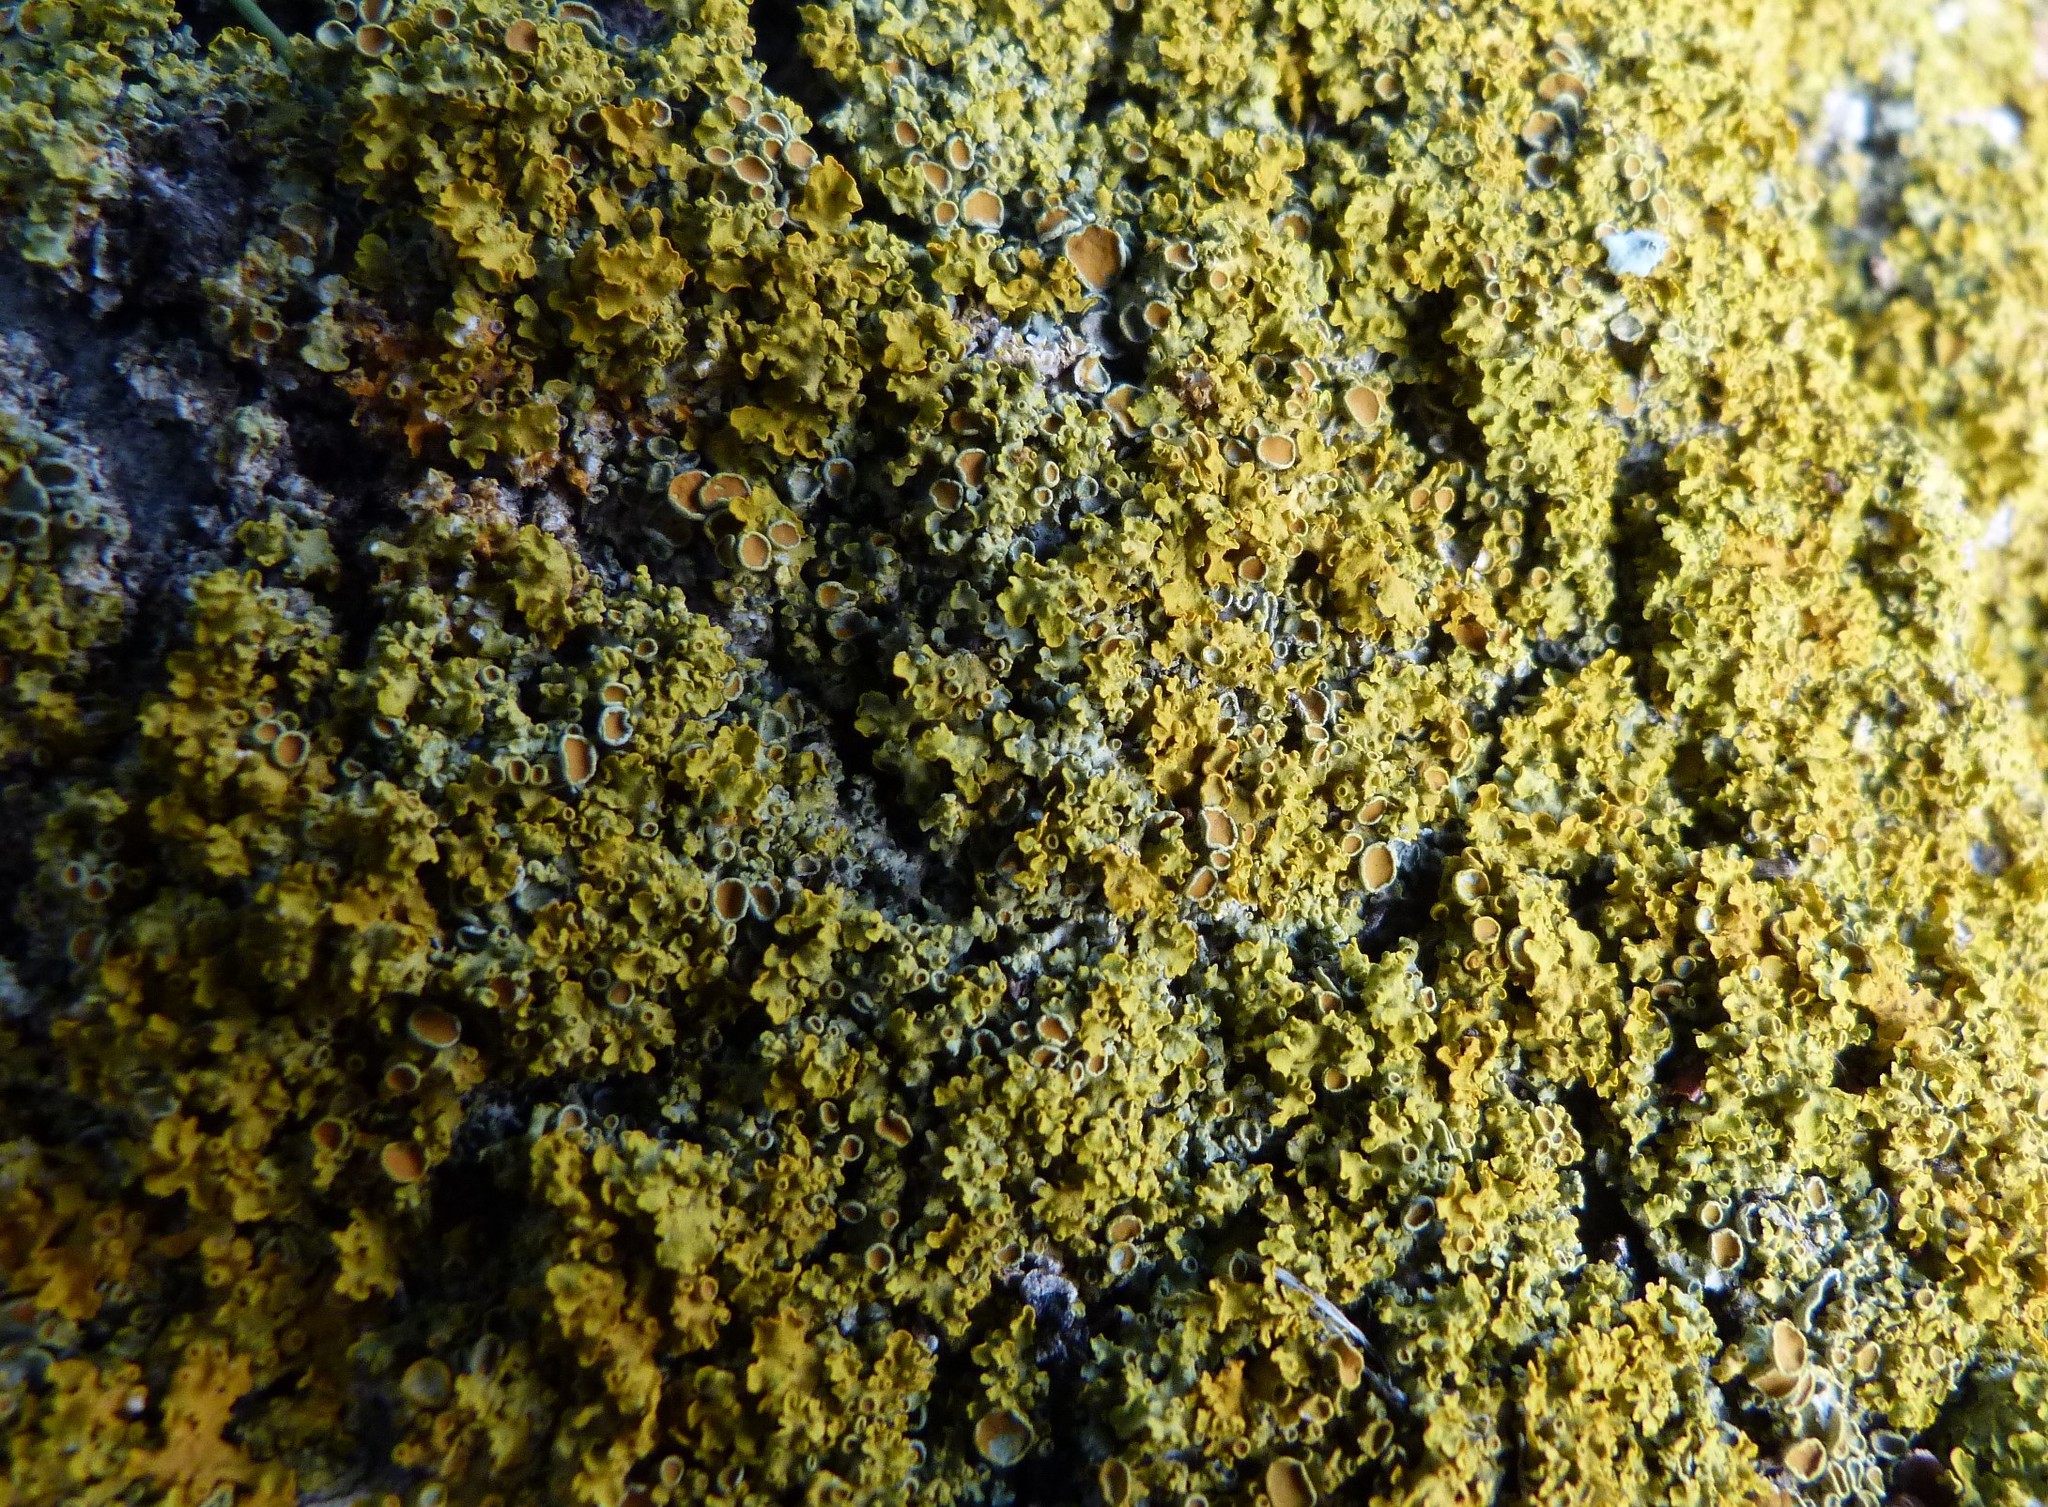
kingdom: Fungi
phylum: Ascomycota
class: Lecanoromycetes
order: Teloschistales
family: Teloschistaceae
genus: Xanthoria
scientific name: Xanthoria parietina
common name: Common orange lichen
